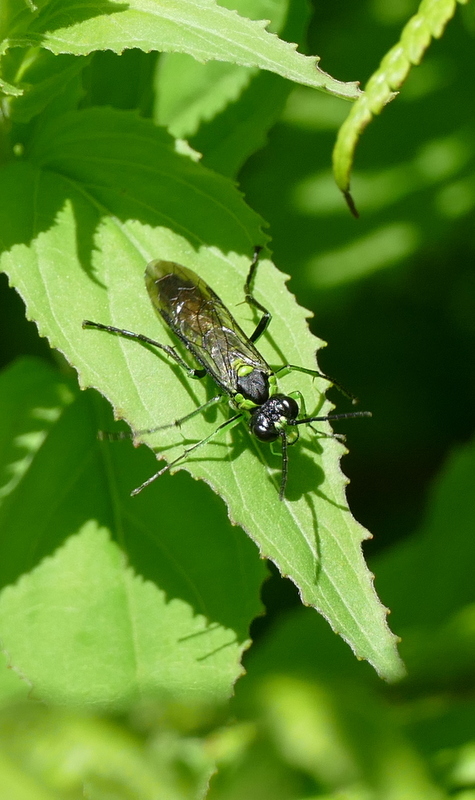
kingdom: Animalia
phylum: Arthropoda
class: Insecta
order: Hymenoptera
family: Tenthredinidae
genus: Tenthredo
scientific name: Tenthredo mesomela
